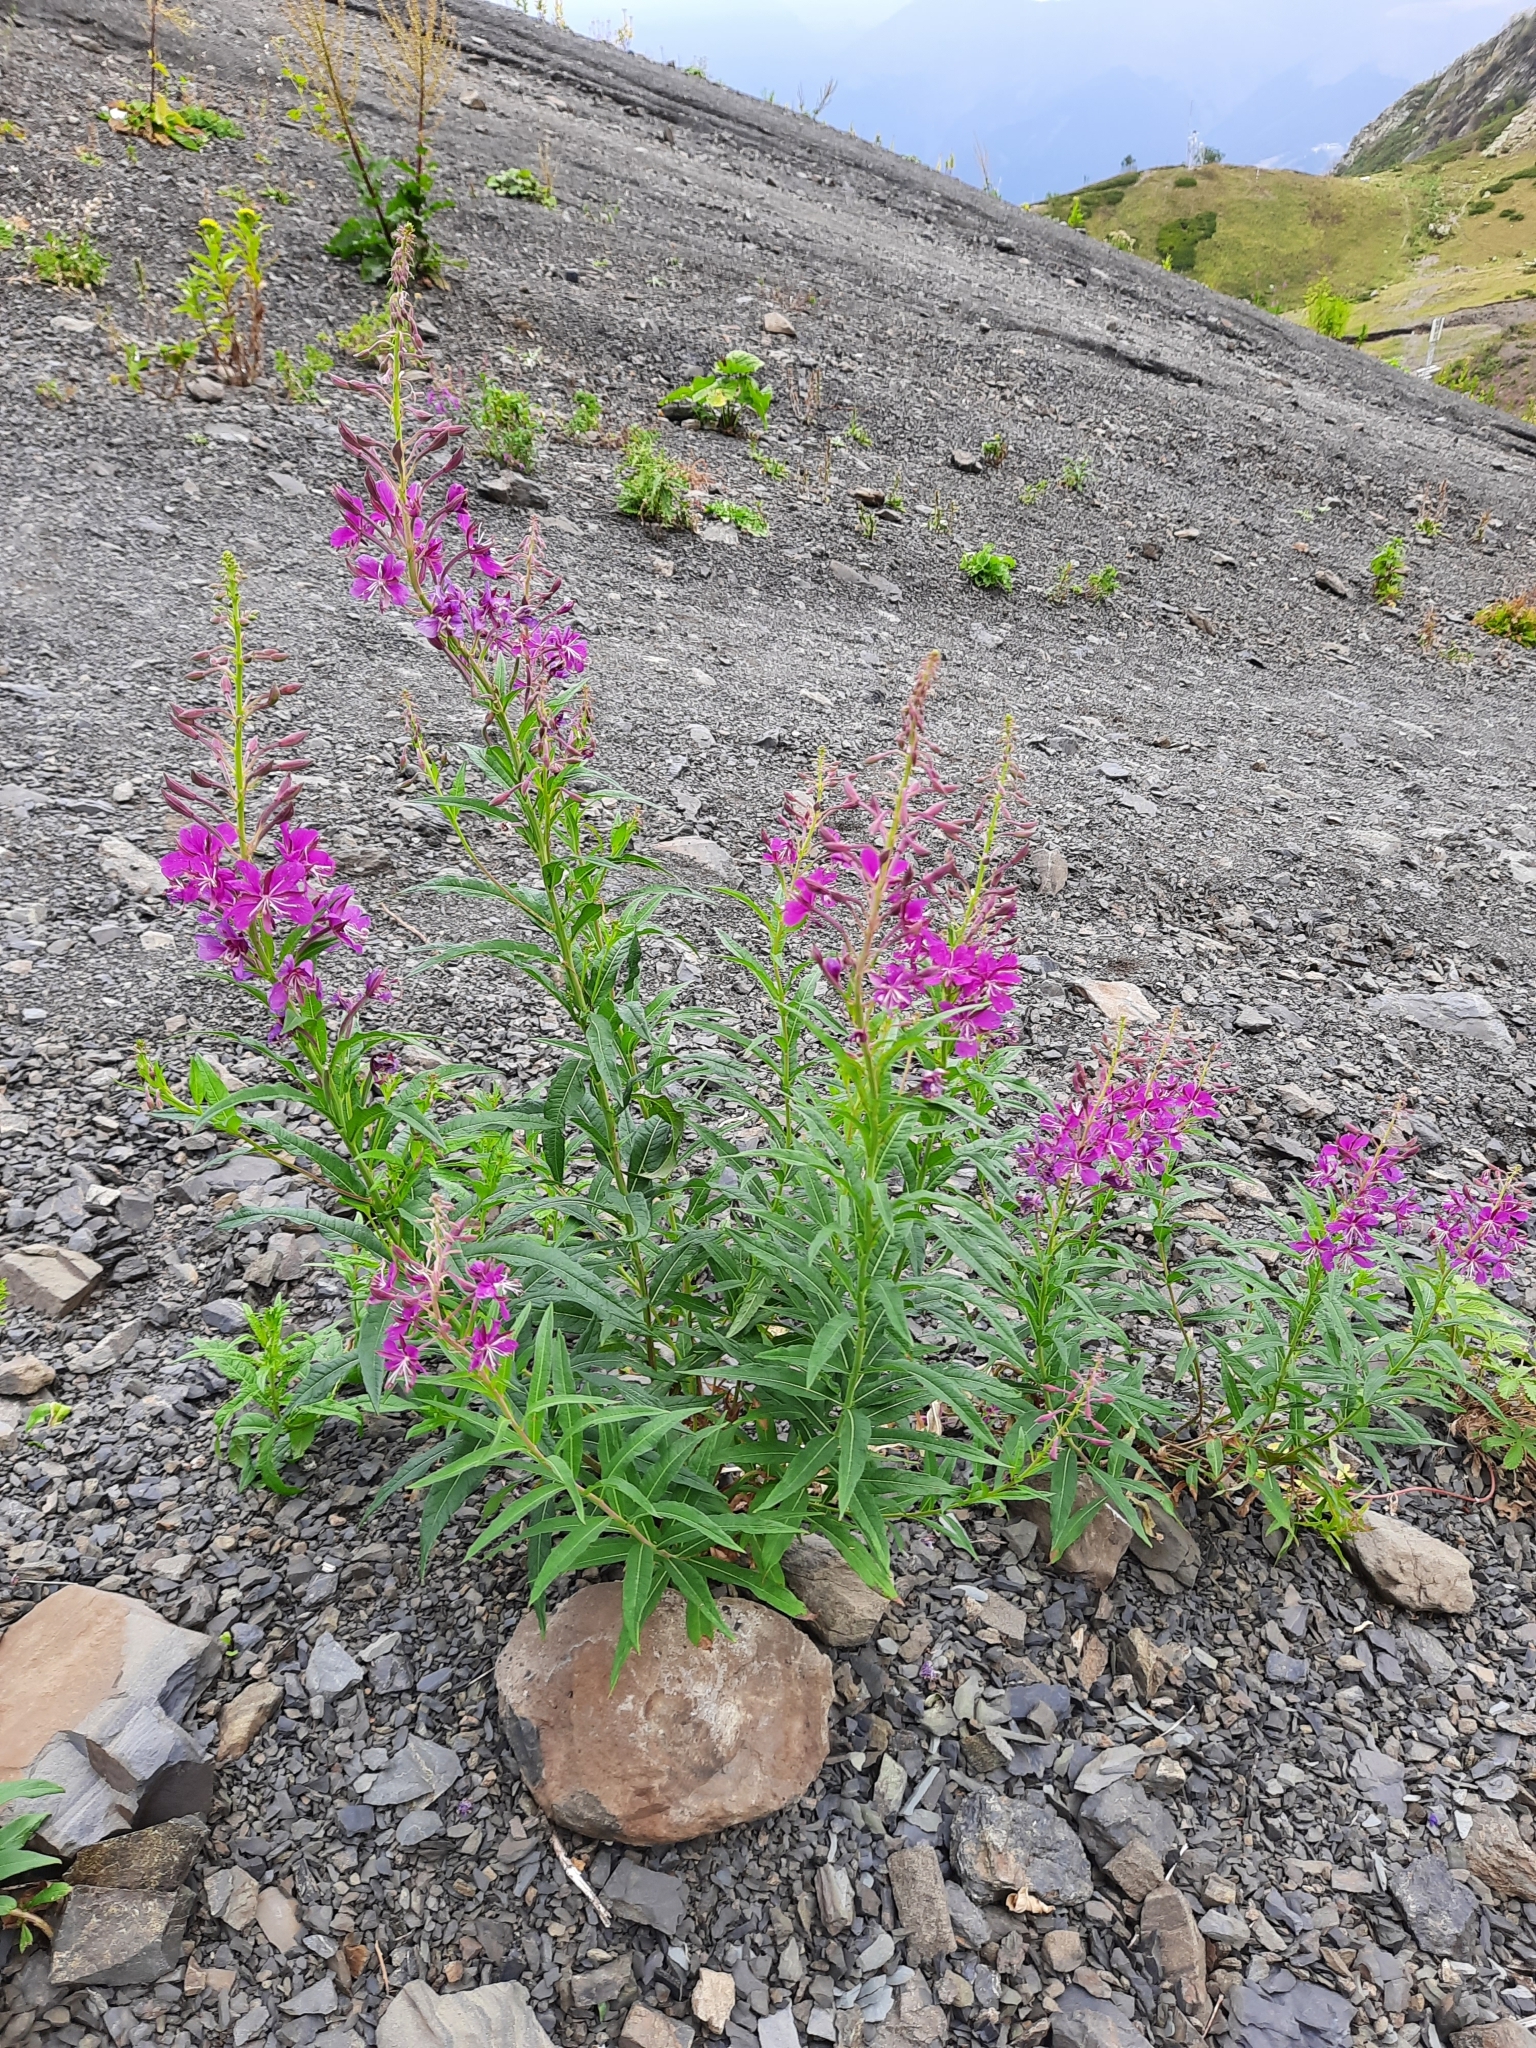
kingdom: Plantae
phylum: Tracheophyta
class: Magnoliopsida
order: Myrtales
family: Onagraceae
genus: Chamaenerion
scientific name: Chamaenerion angustifolium
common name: Fireweed
